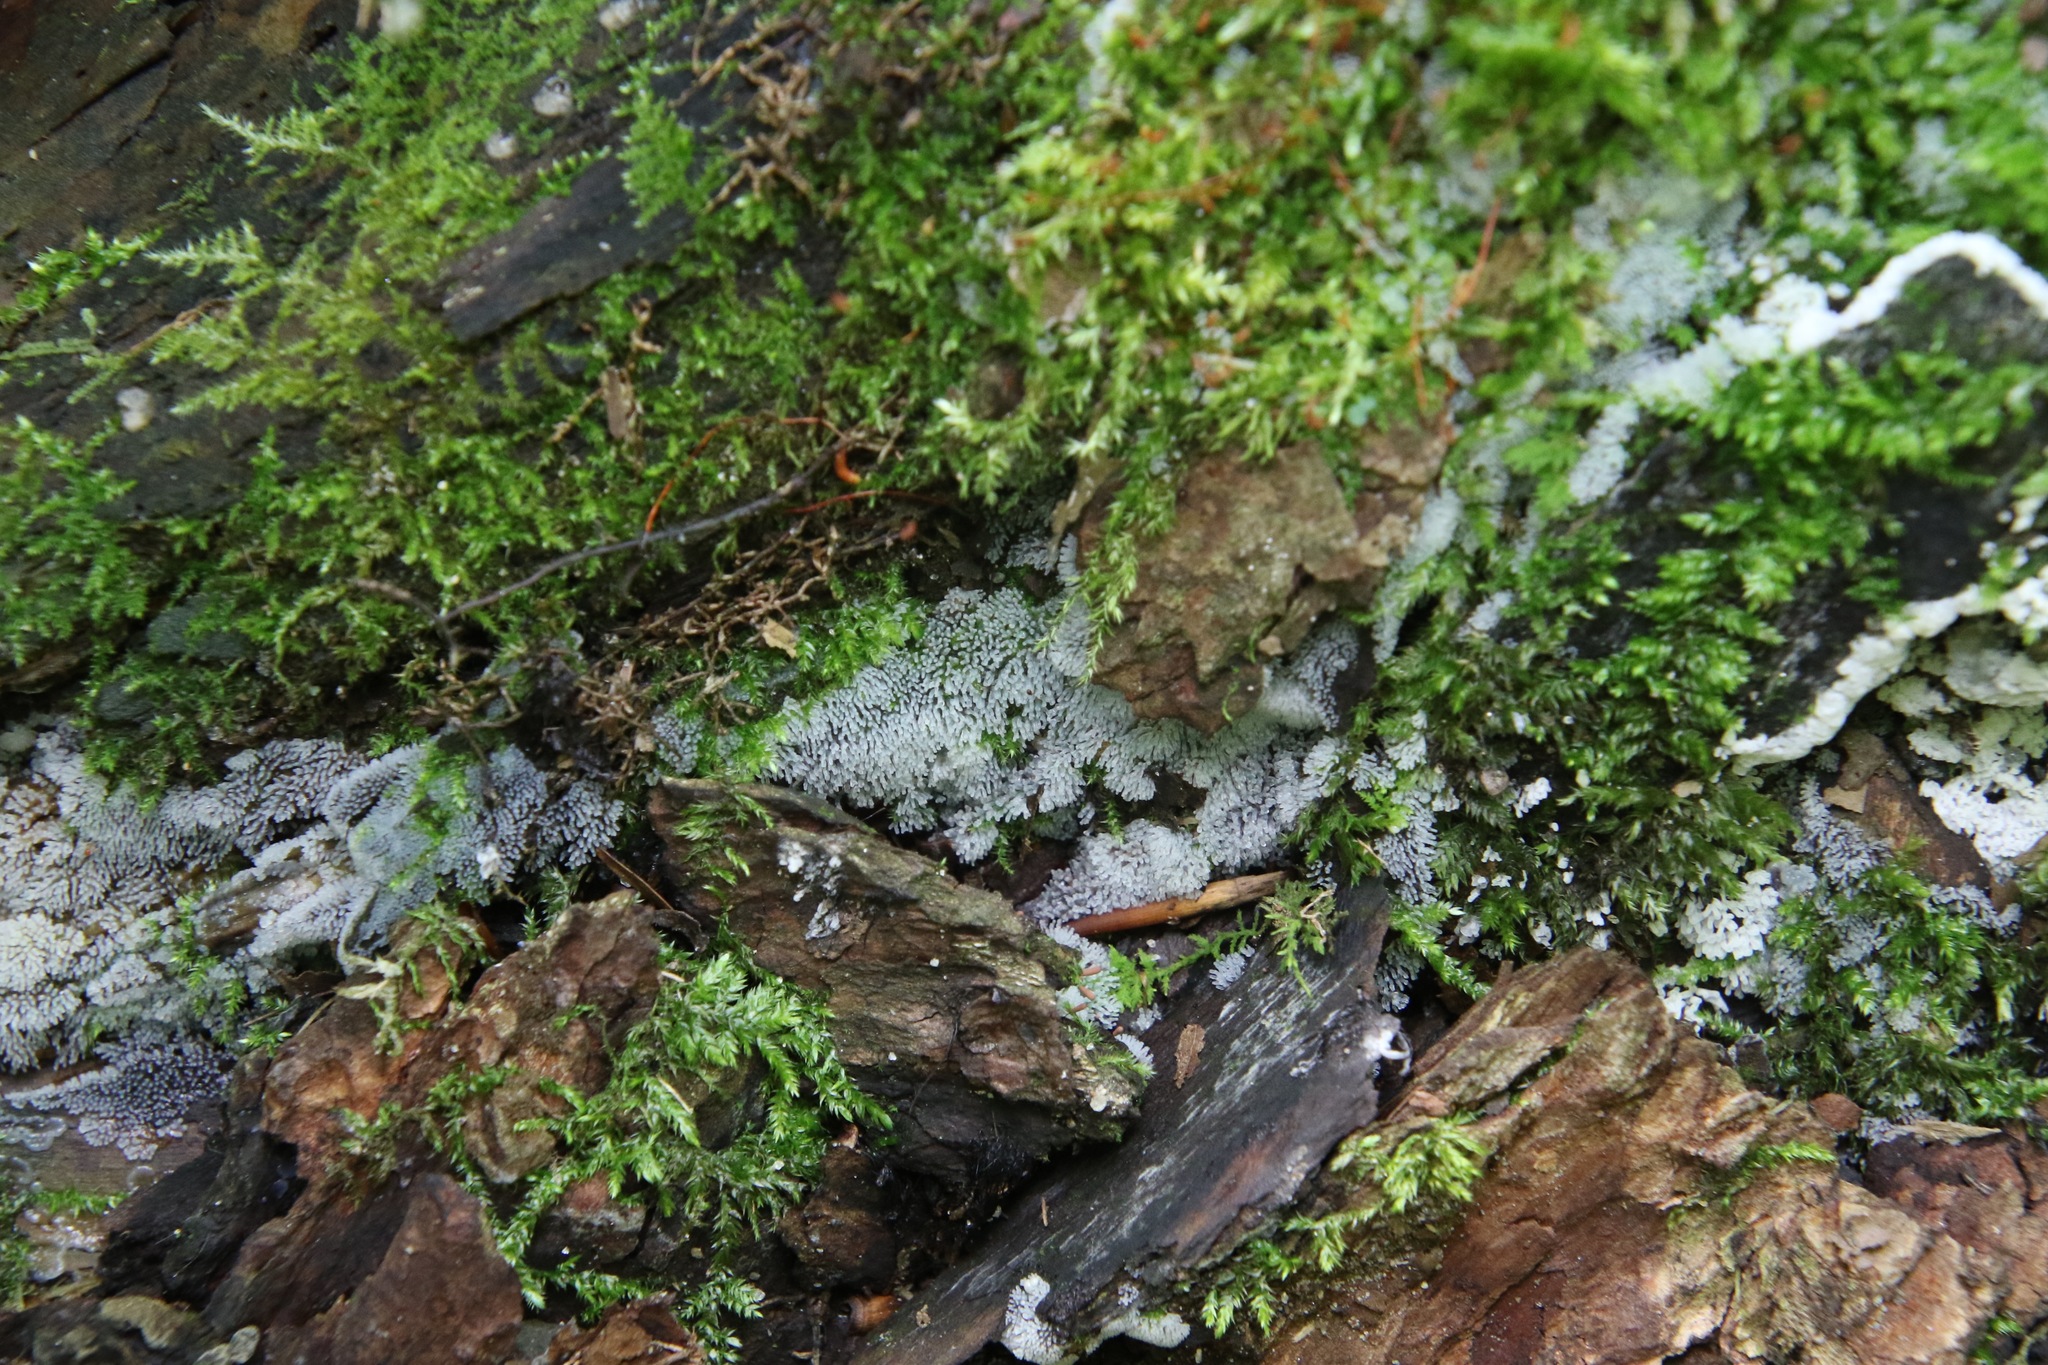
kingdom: Protozoa
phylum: Mycetozoa
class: Protosteliomycetes
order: Ceratiomyxales
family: Ceratiomyxaceae
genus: Ceratiomyxa
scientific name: Ceratiomyxa fruticulosa
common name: Honeycomb coral slime mold
